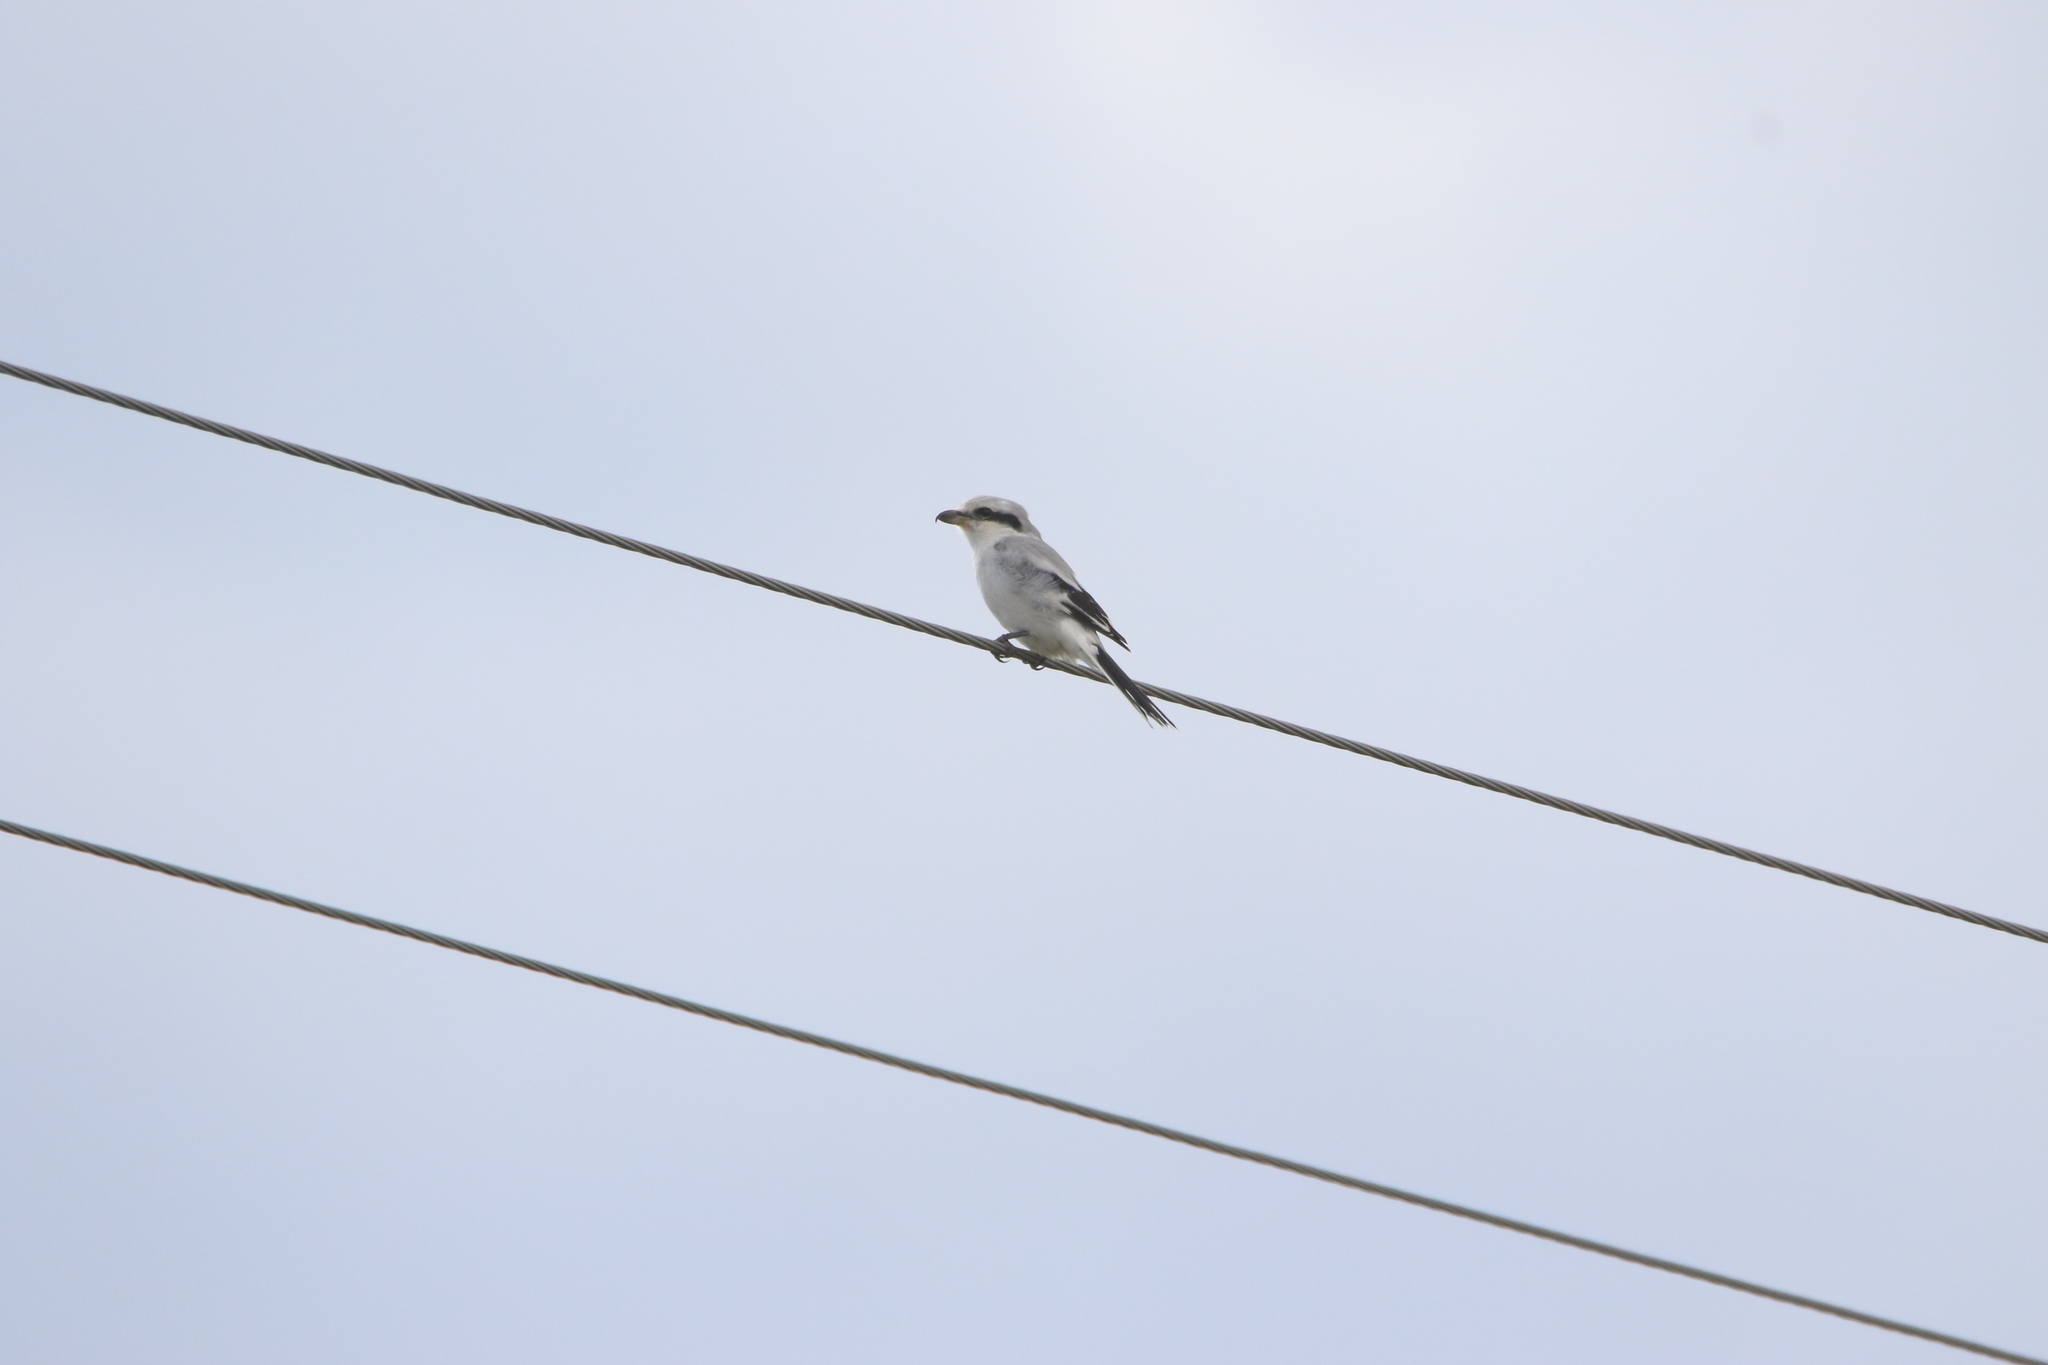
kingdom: Animalia
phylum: Chordata
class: Aves
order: Passeriformes
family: Laniidae
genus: Lanius
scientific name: Lanius excubitor
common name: Great grey shrike
